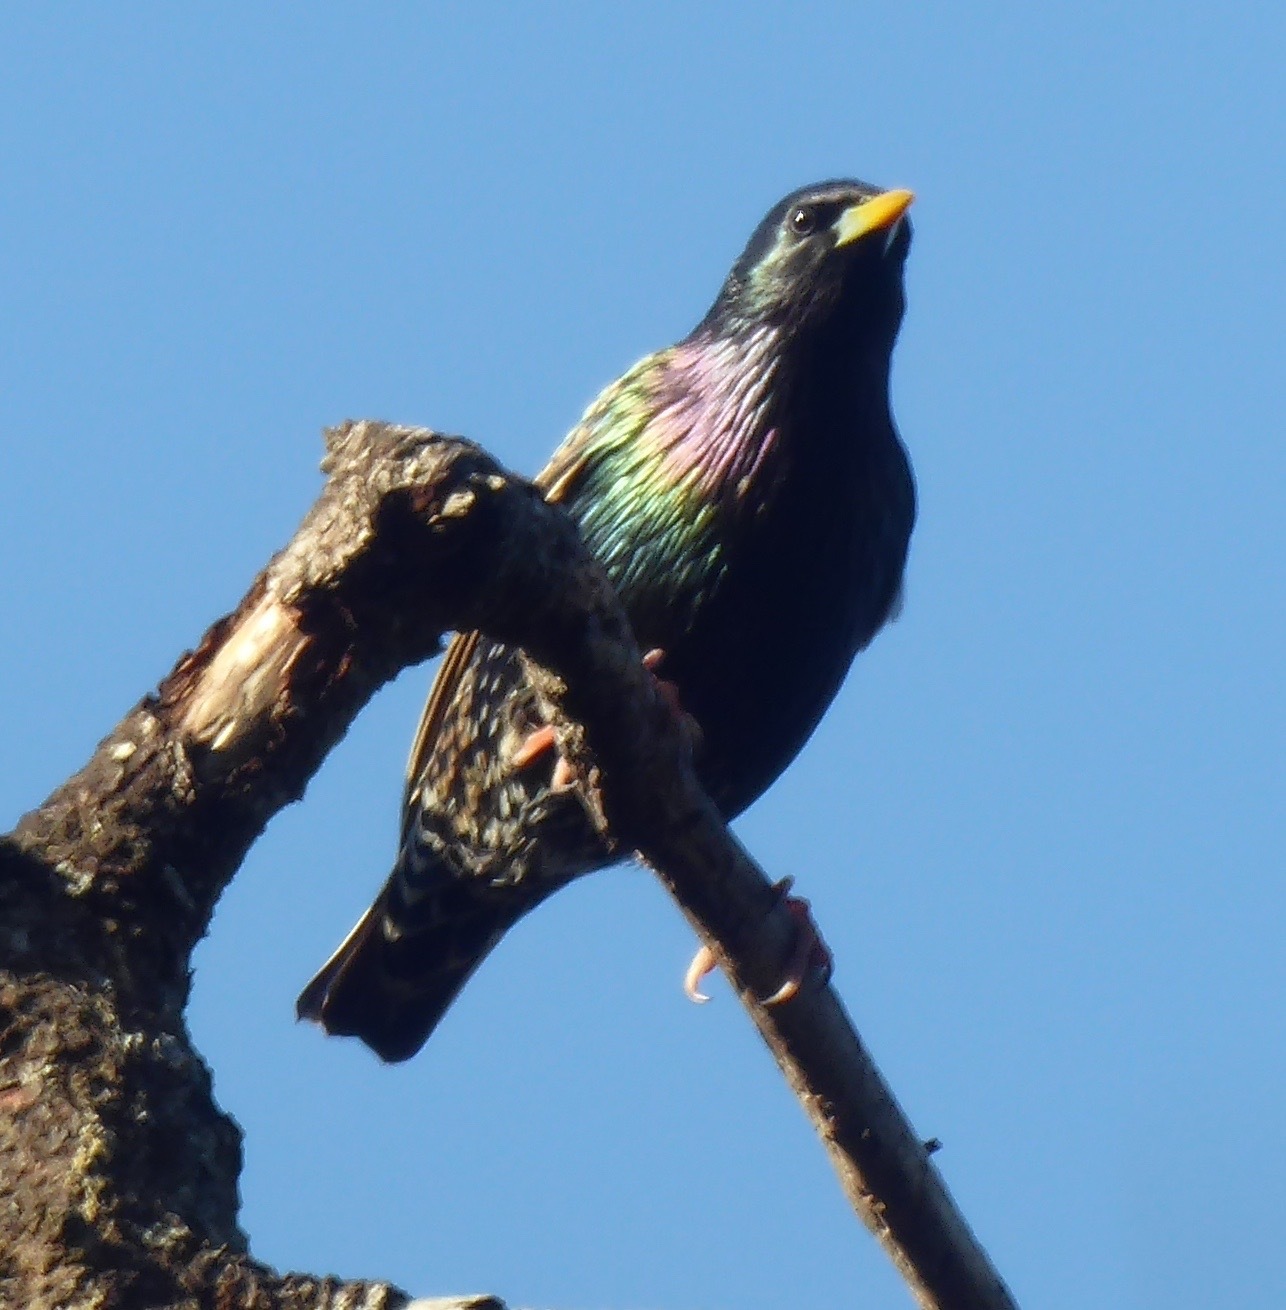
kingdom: Animalia
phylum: Chordata
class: Aves
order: Passeriformes
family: Sturnidae
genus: Sturnus
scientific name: Sturnus vulgaris
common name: Common starling
